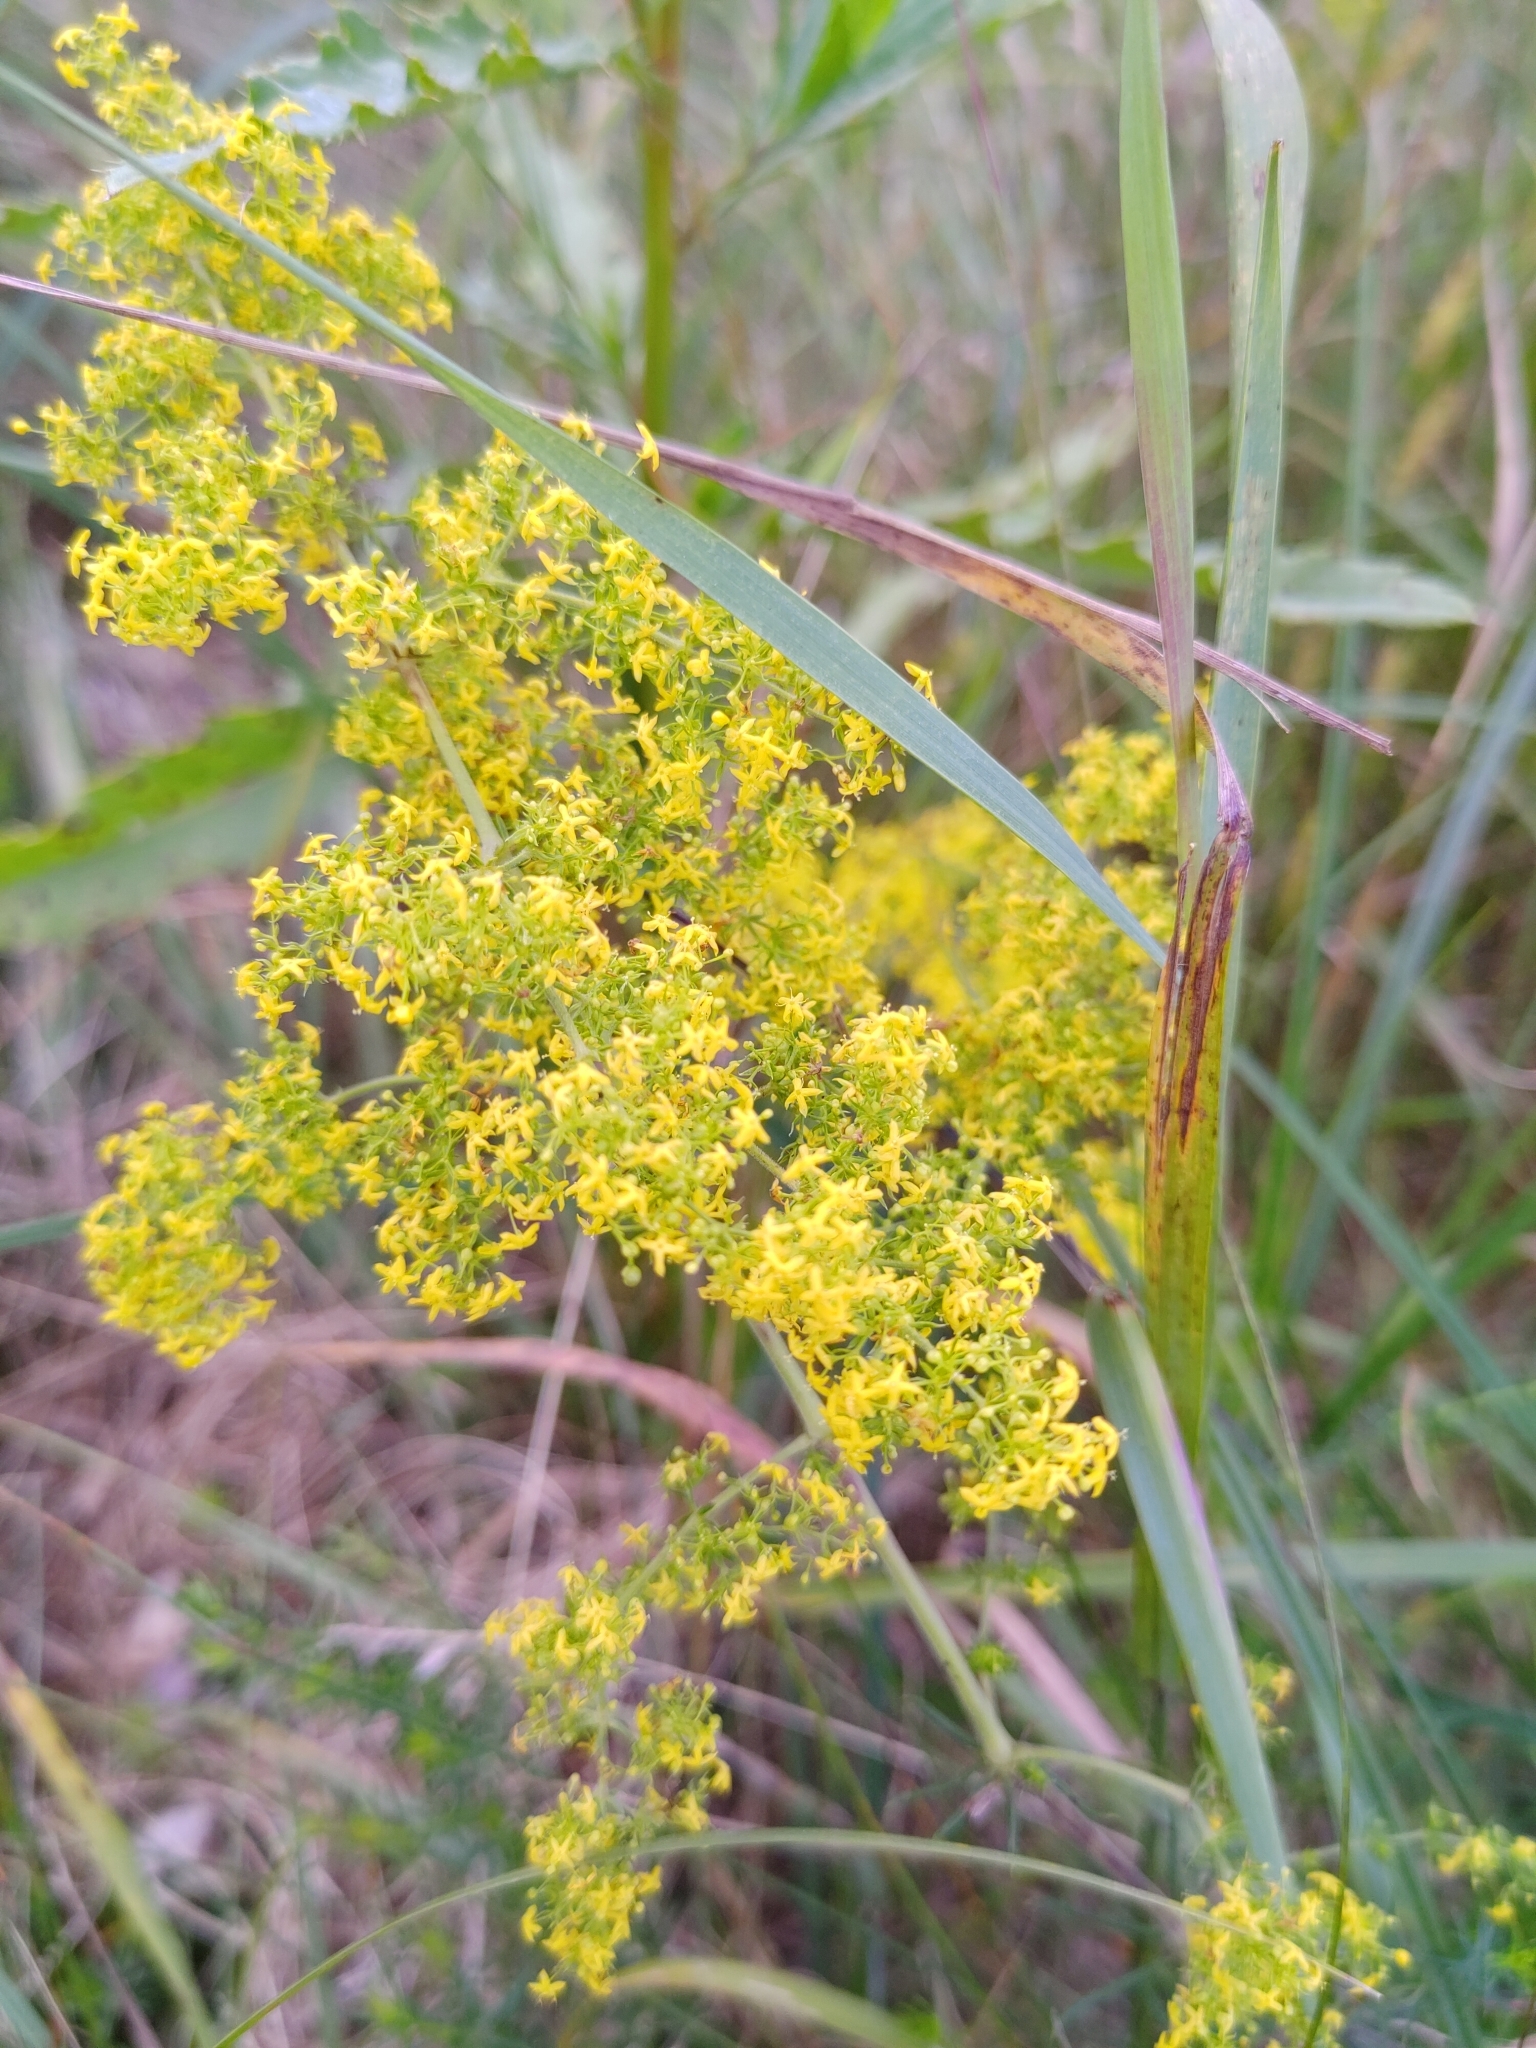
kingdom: Plantae
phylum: Tracheophyta
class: Magnoliopsida
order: Gentianales
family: Rubiaceae
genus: Galium
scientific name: Galium verum
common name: Lady's bedstraw
